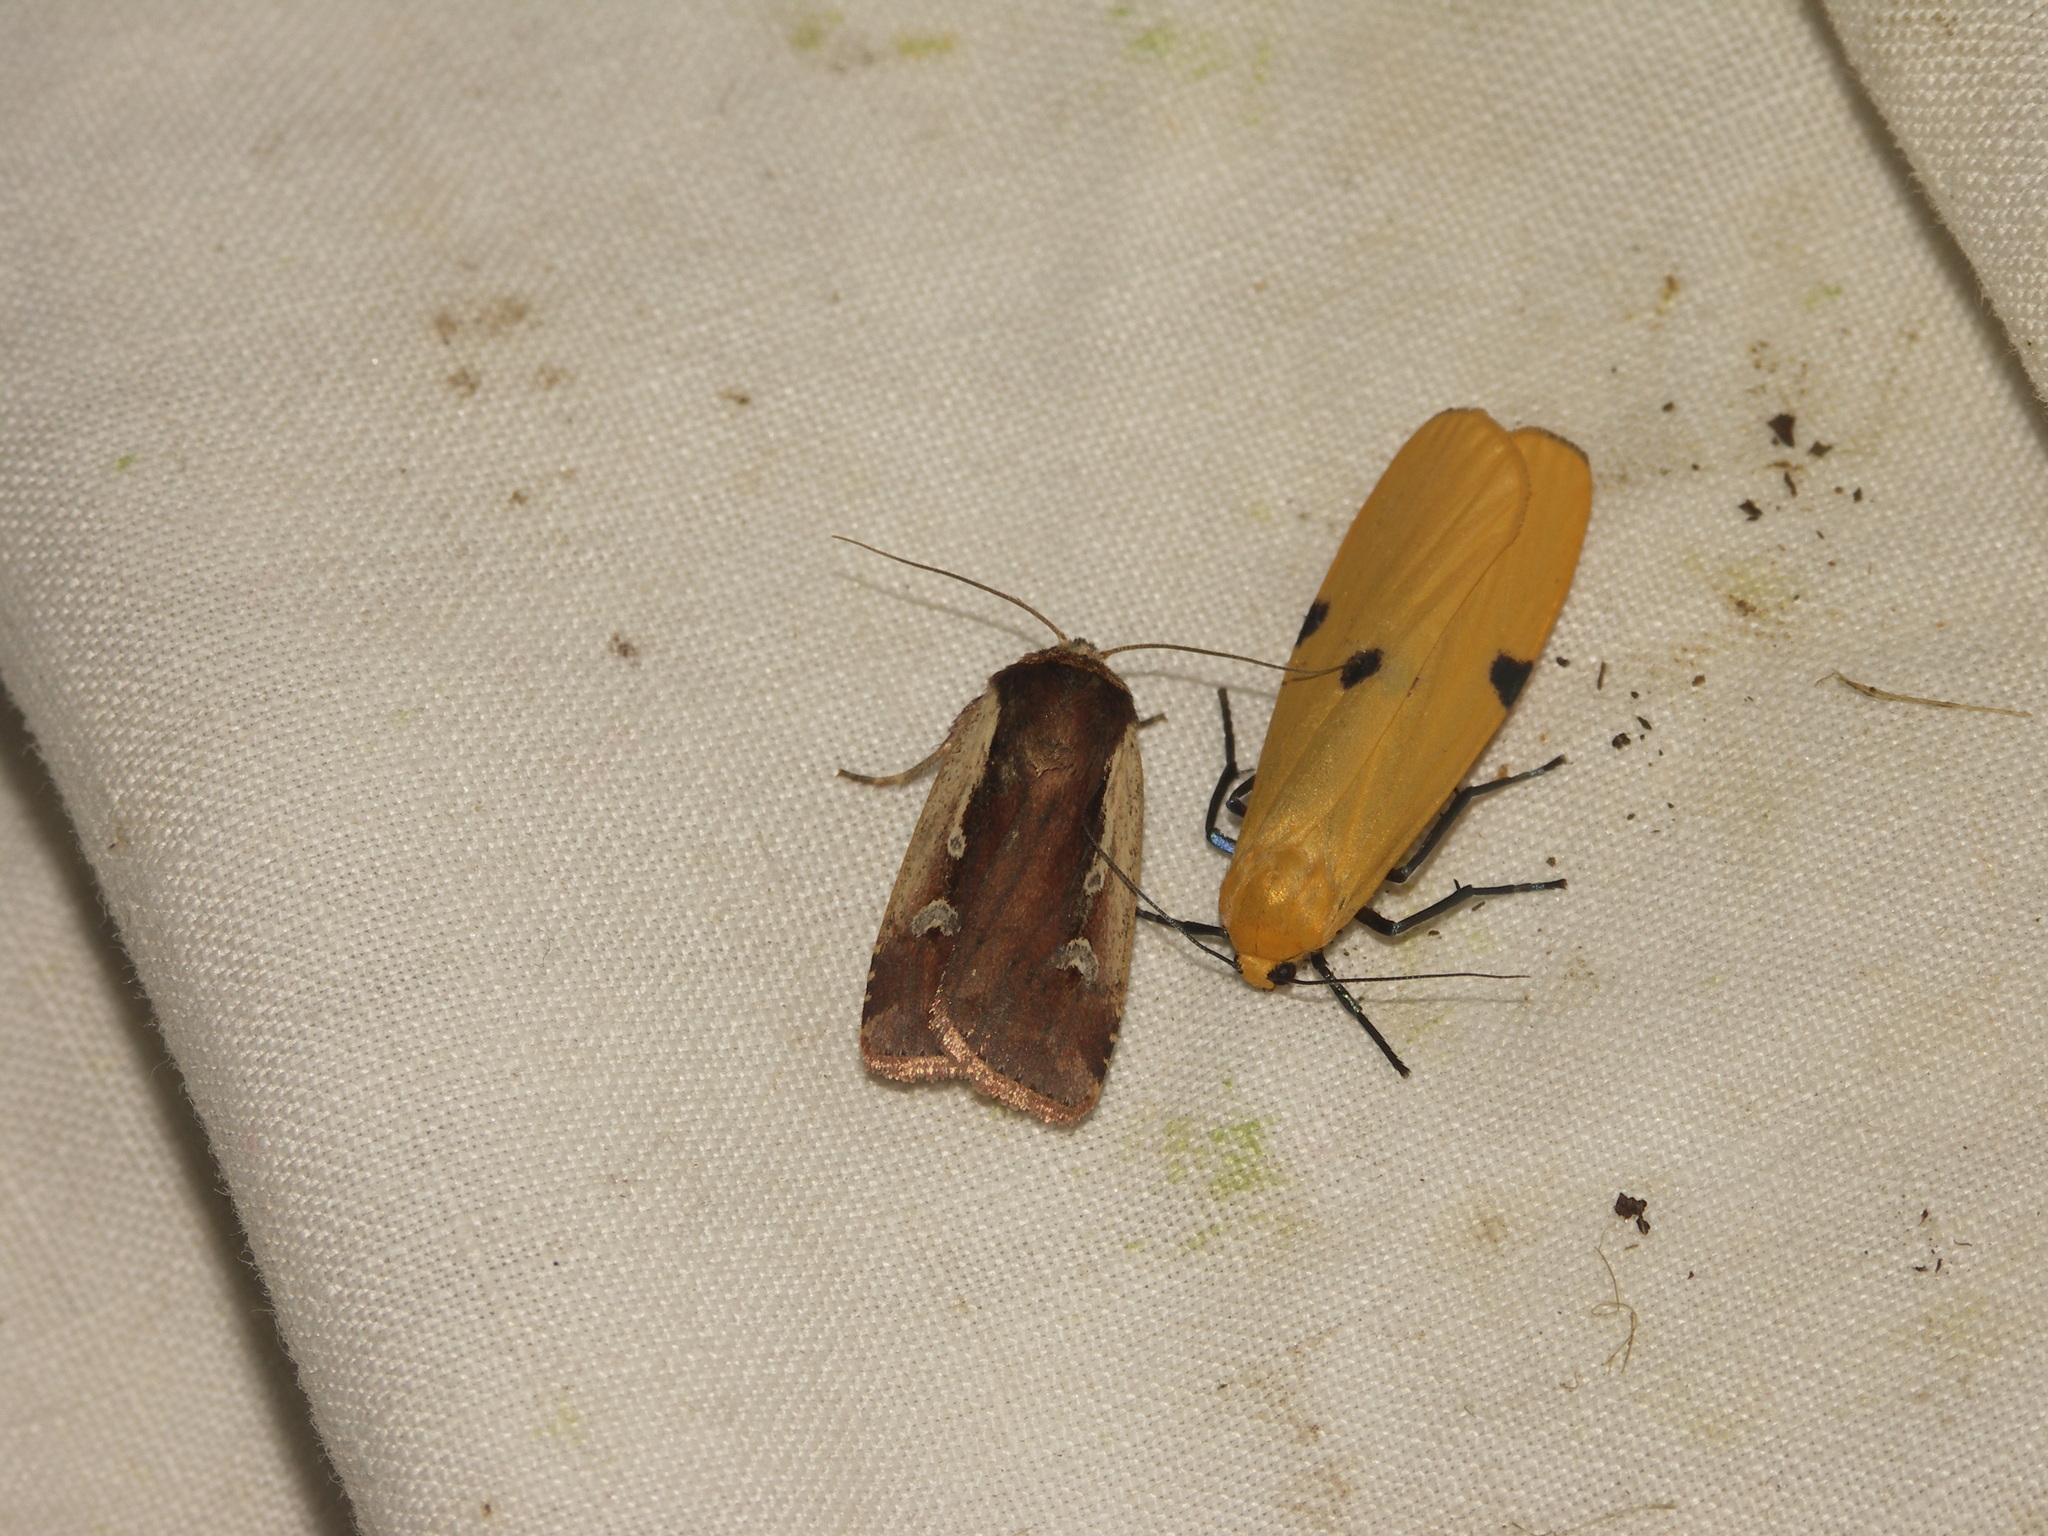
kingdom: Animalia
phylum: Arthropoda
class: Insecta
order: Lepidoptera
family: Noctuidae
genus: Ochropleura
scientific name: Ochropleura plecta
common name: Flame shoulder
